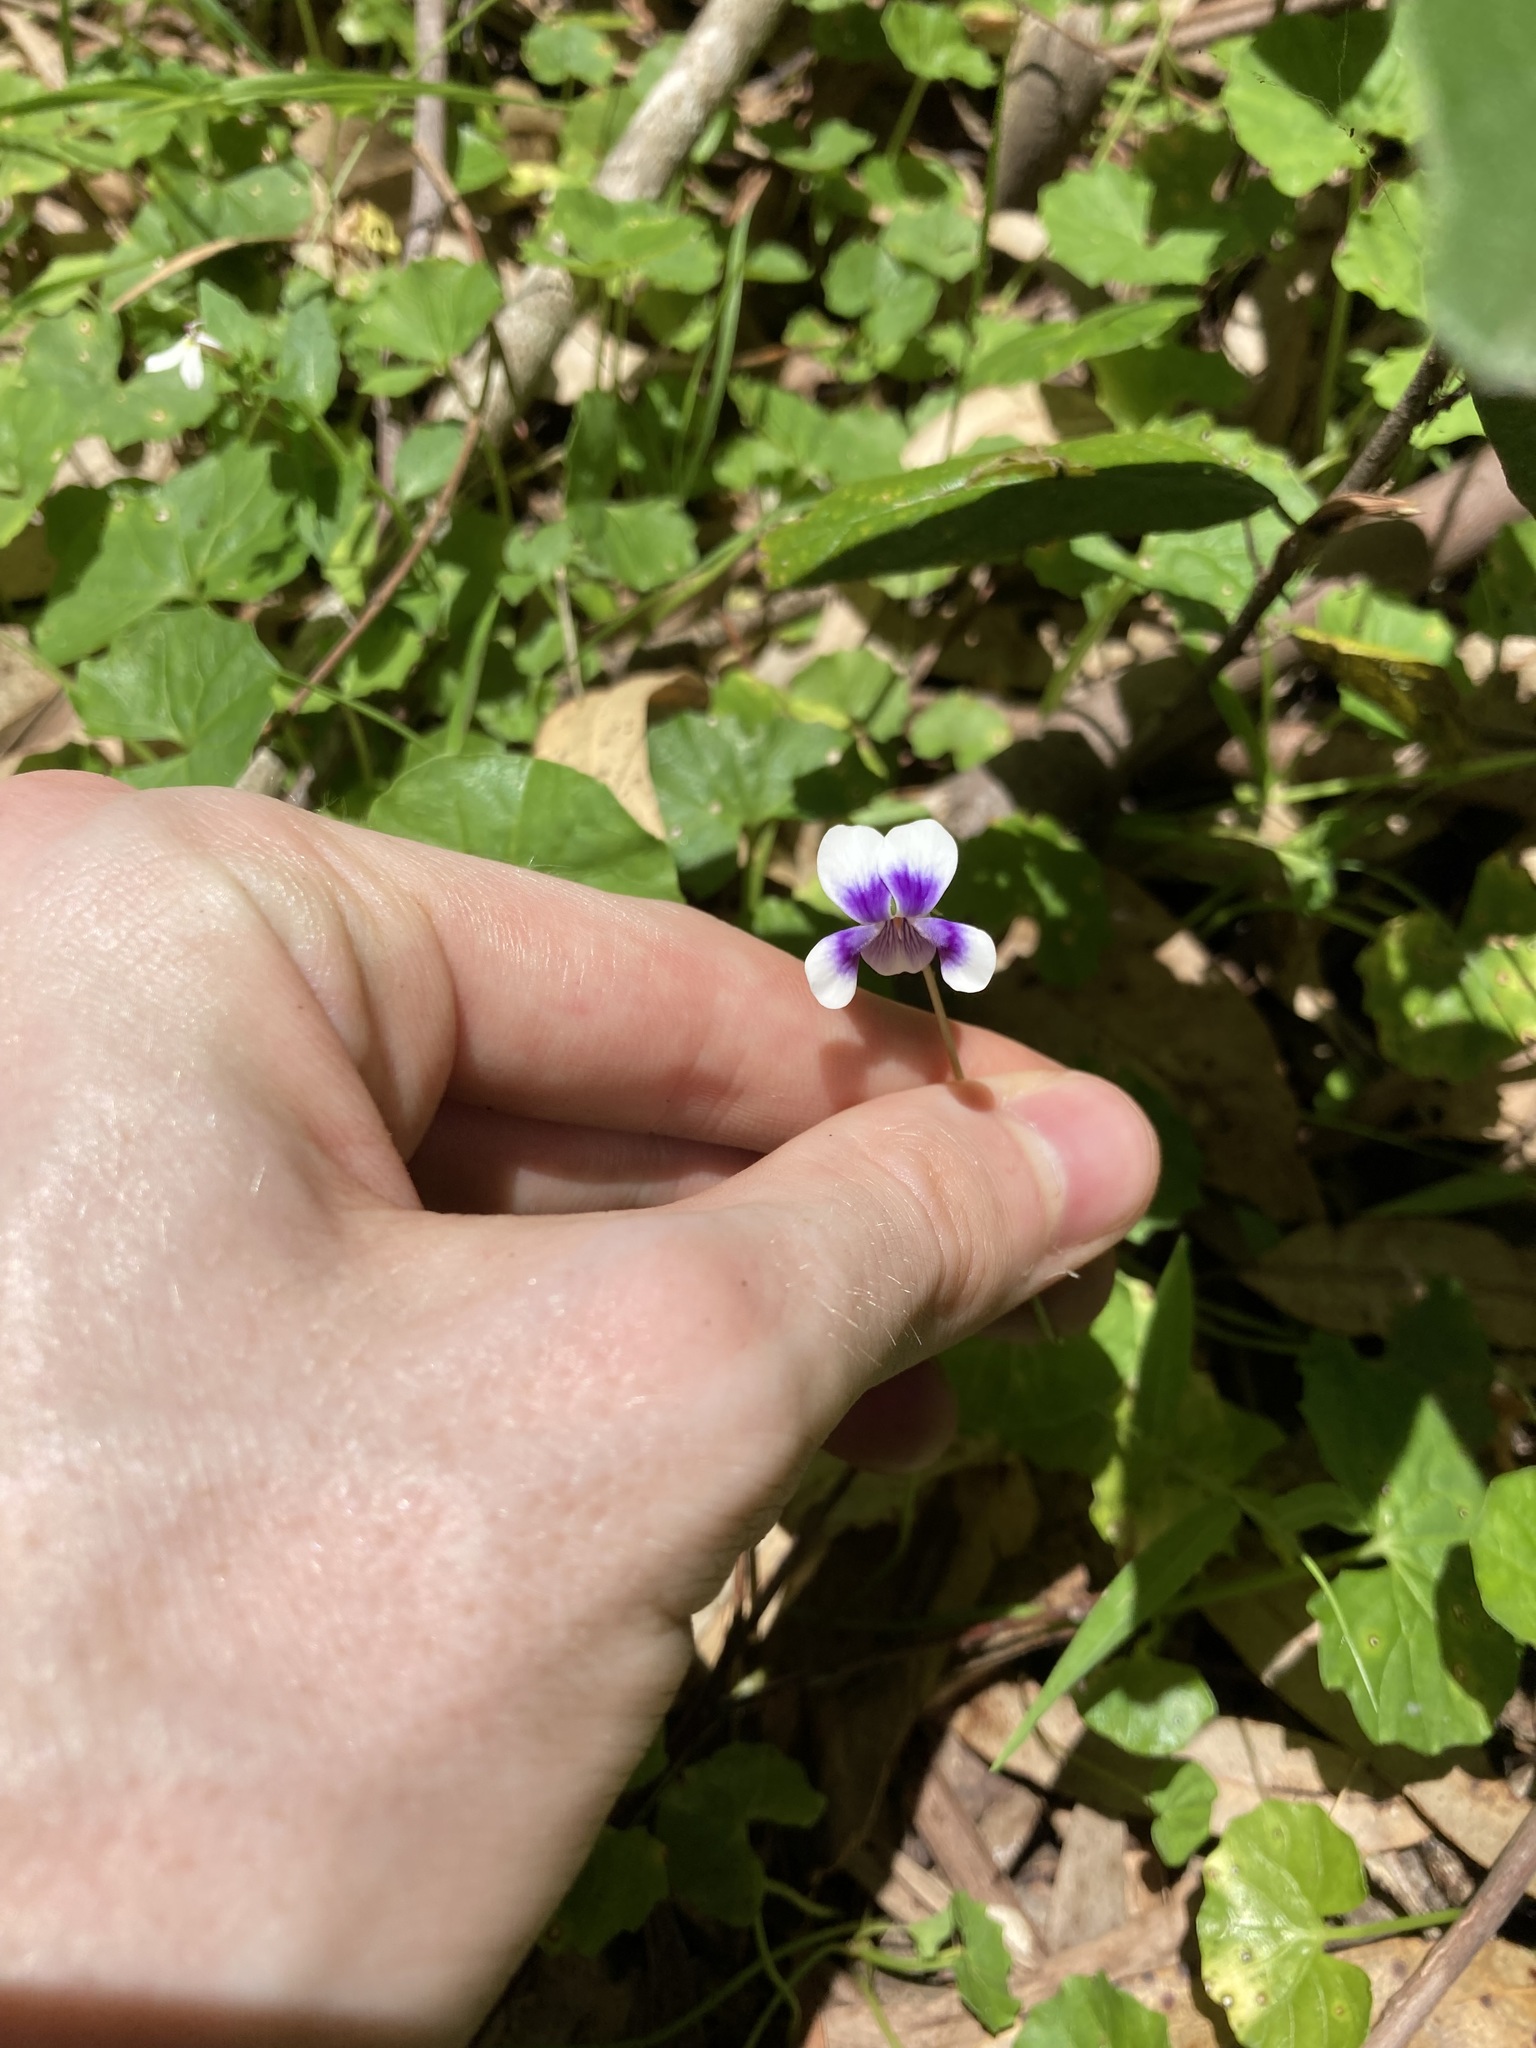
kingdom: Plantae
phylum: Tracheophyta
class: Magnoliopsida
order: Malpighiales
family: Violaceae
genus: Viola
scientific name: Viola banksii
